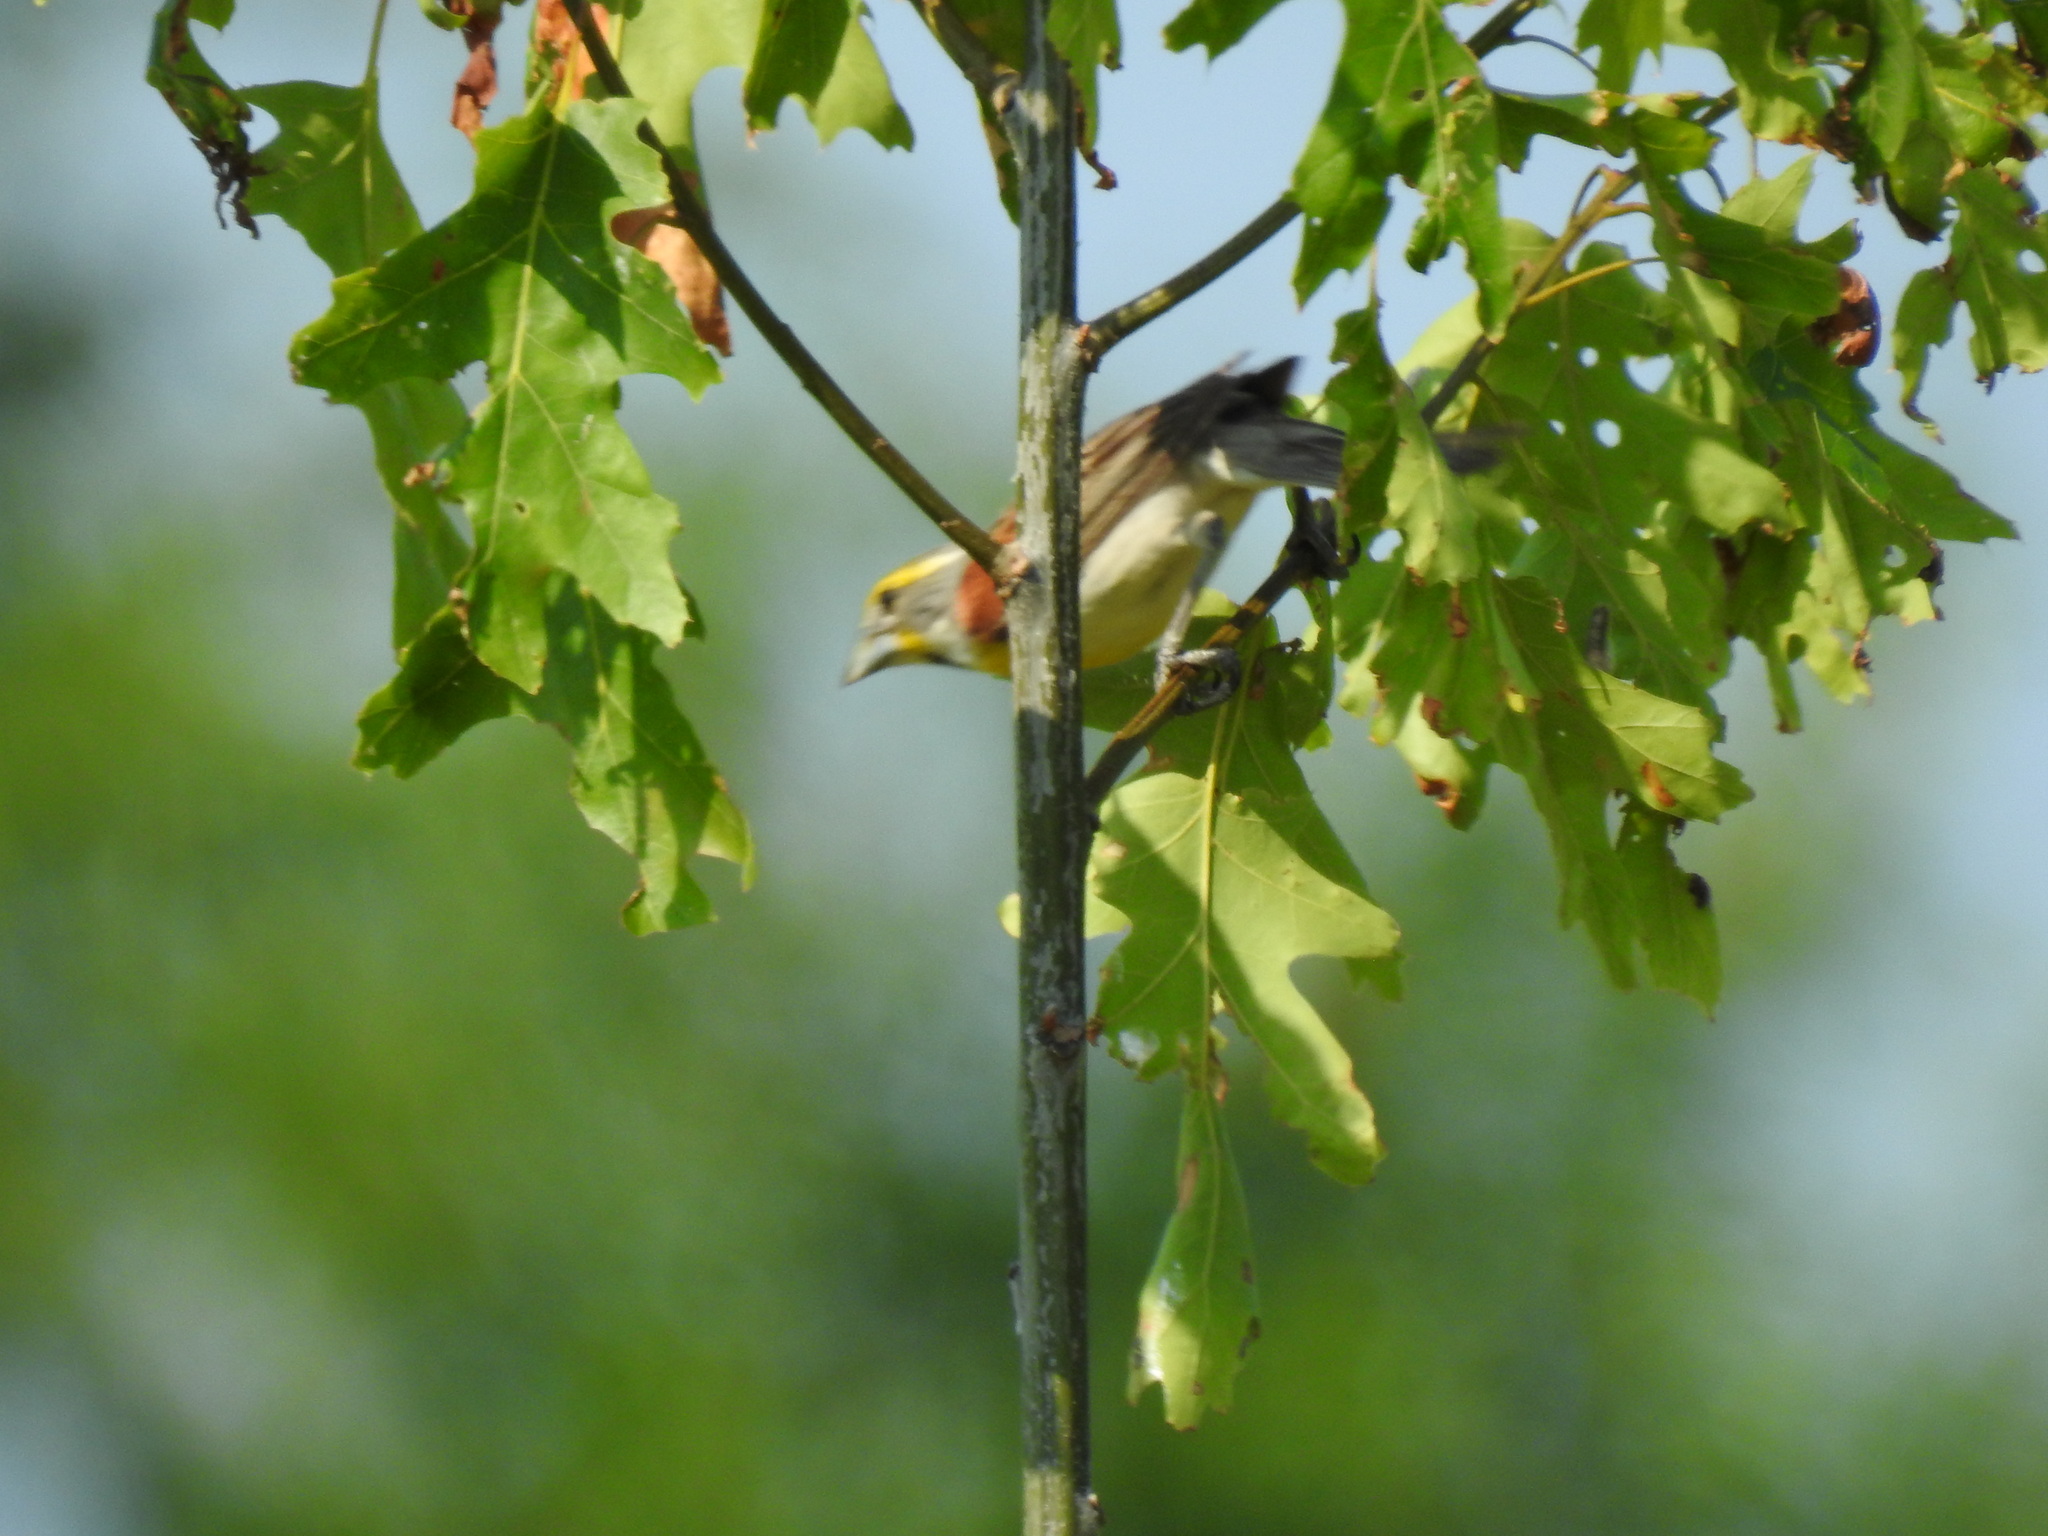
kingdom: Animalia
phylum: Chordata
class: Aves
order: Passeriformes
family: Cardinalidae
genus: Spiza
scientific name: Spiza americana
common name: Dickcissel
